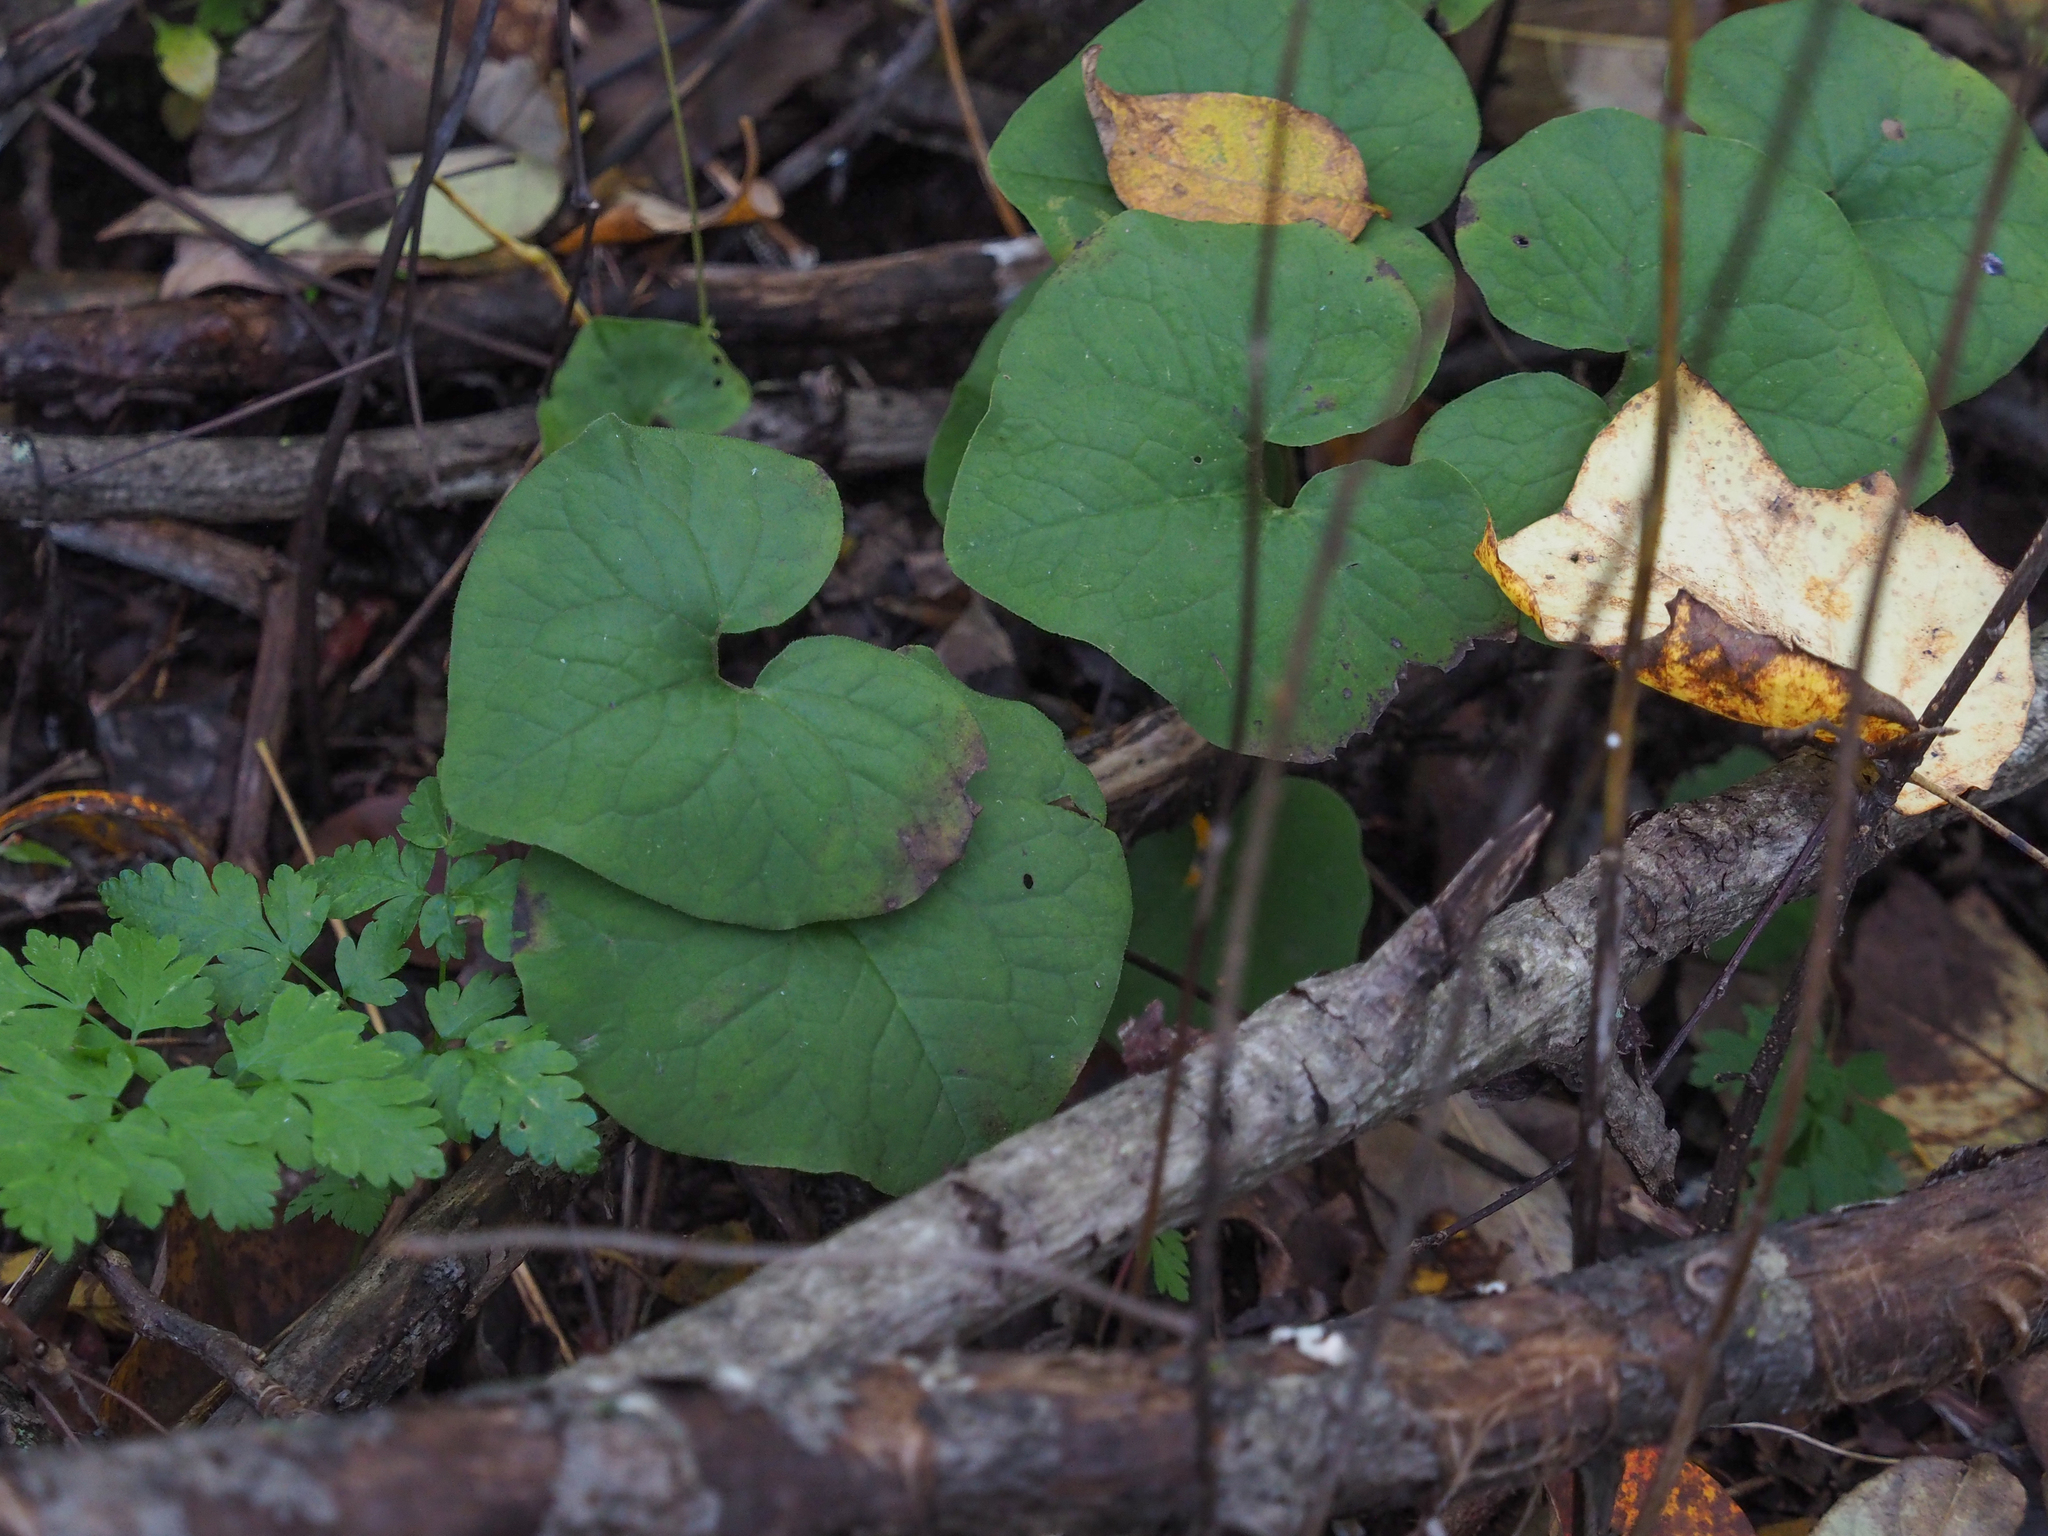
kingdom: Plantae
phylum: Tracheophyta
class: Magnoliopsida
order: Piperales
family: Aristolochiaceae
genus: Asarum
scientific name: Asarum canadense
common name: Wild ginger
